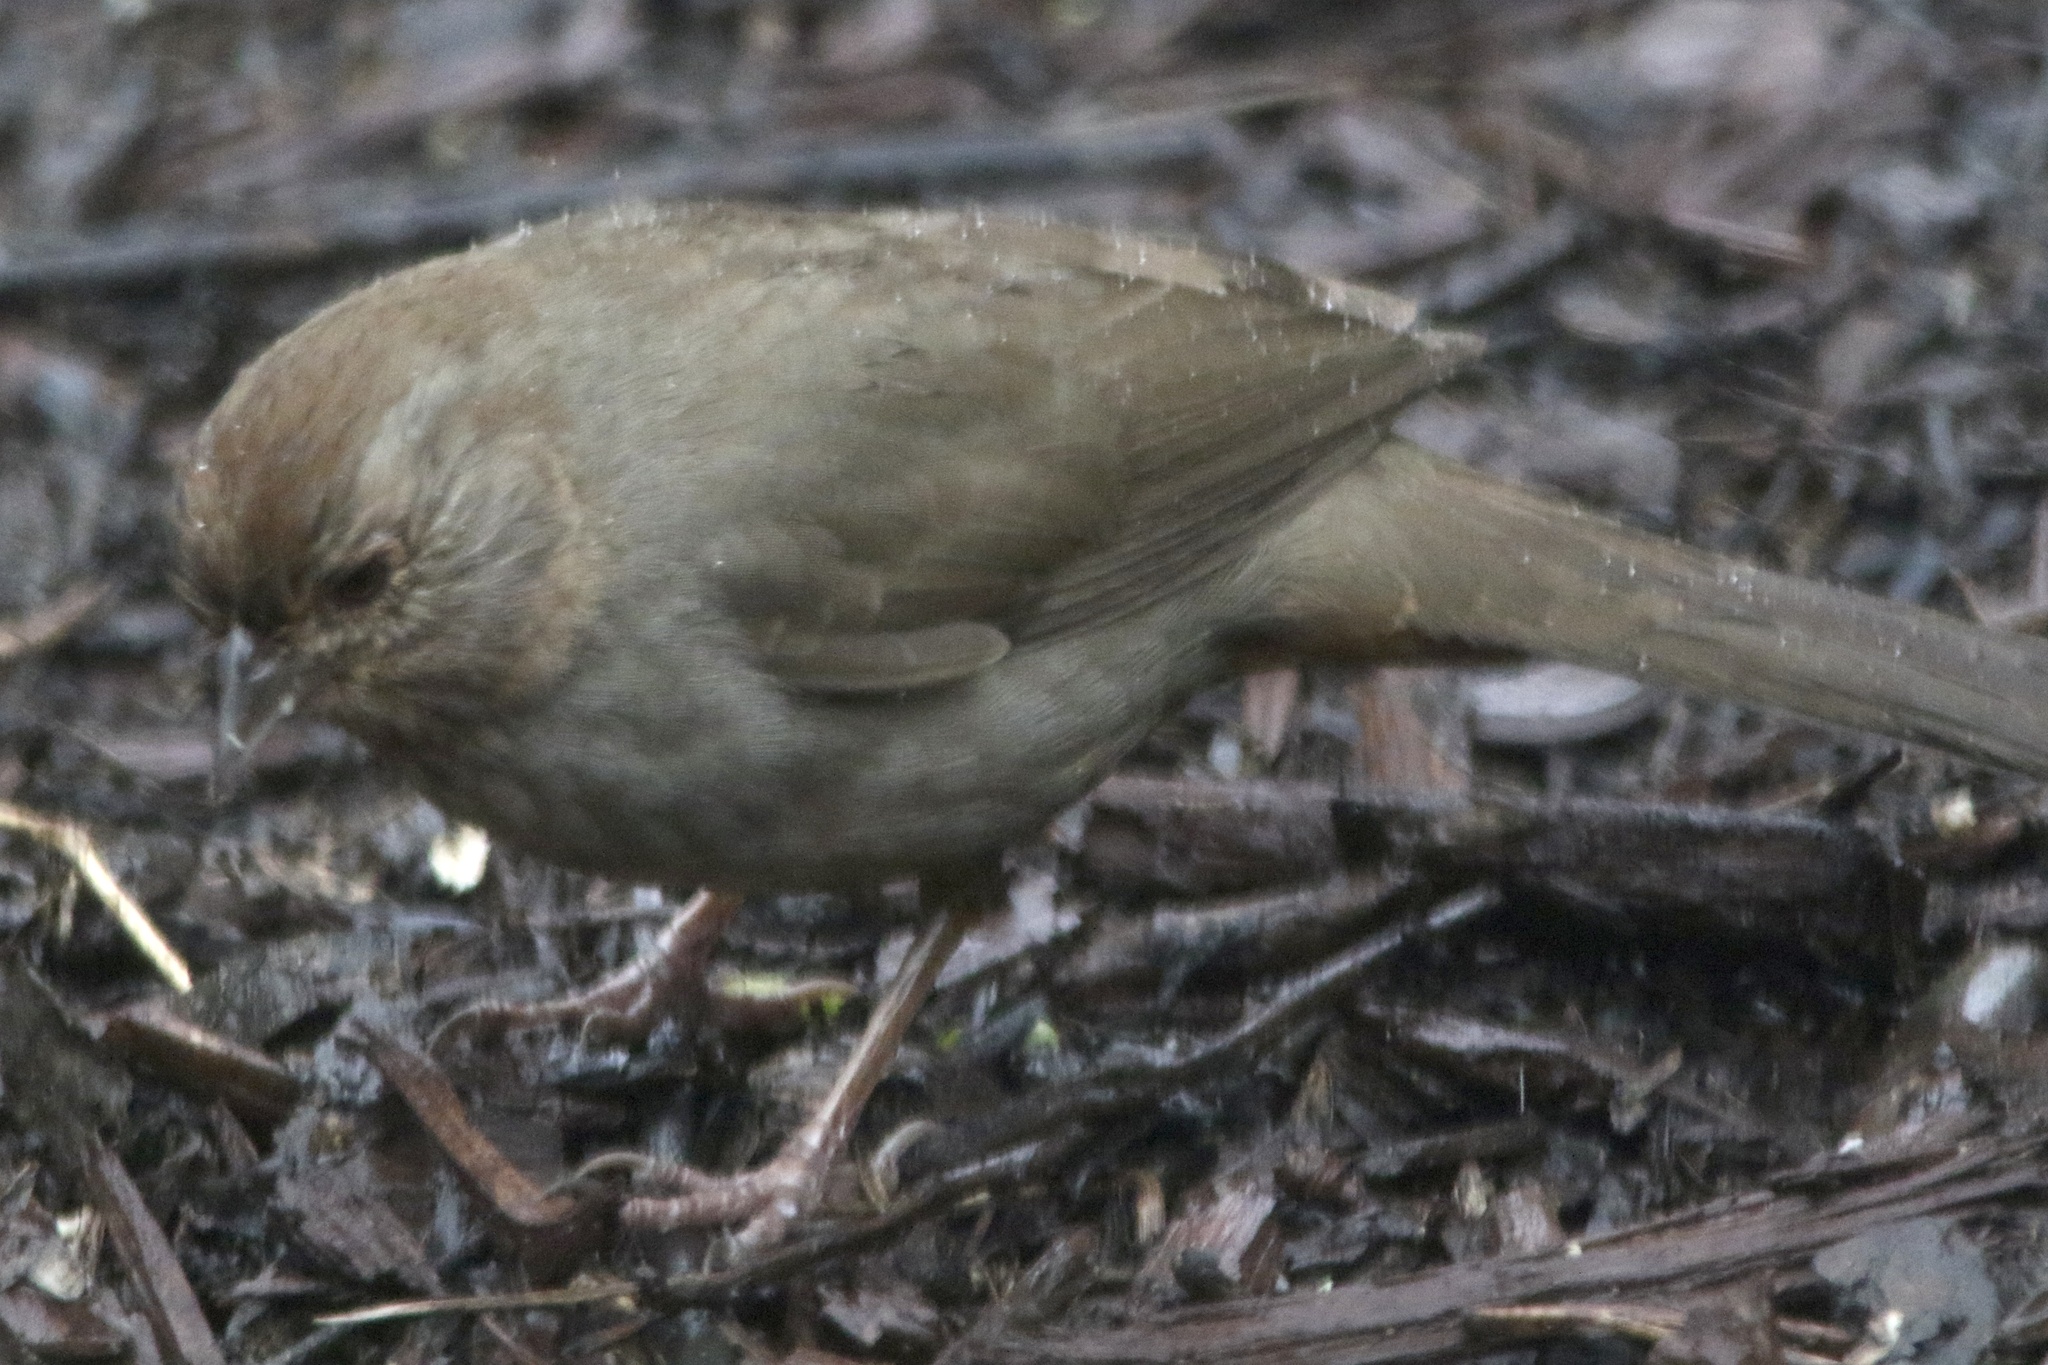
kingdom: Animalia
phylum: Chordata
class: Aves
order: Passeriformes
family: Passerellidae
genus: Melozone
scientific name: Melozone crissalis
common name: California towhee
